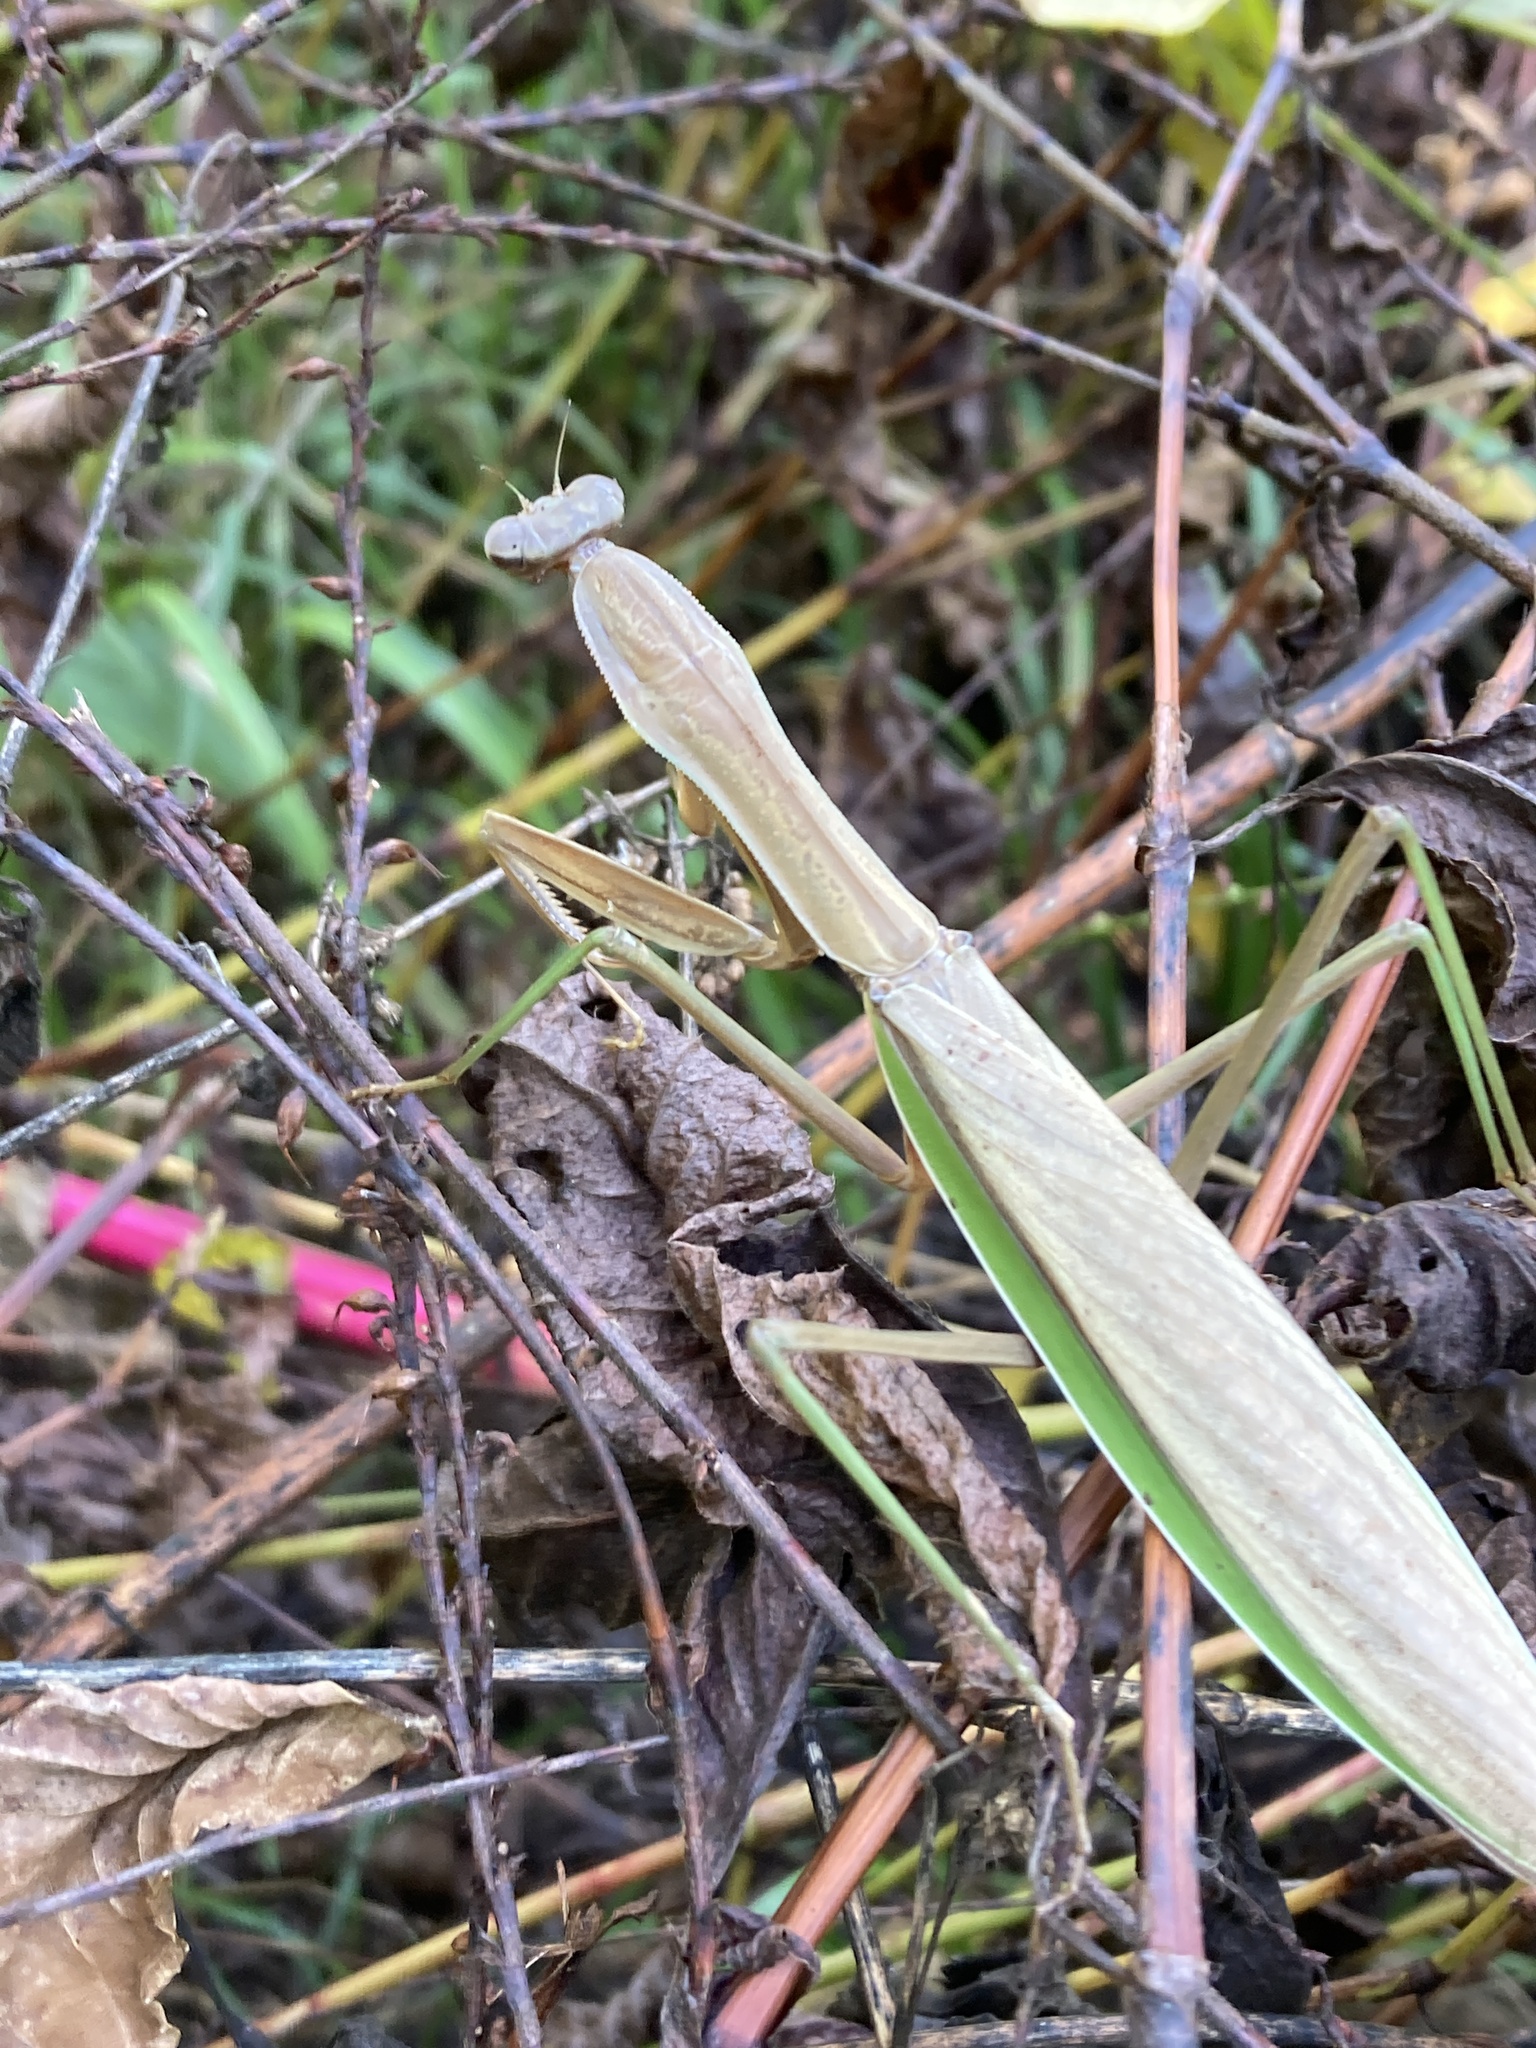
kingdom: Animalia
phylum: Arthropoda
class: Insecta
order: Mantodea
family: Mantidae
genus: Tenodera
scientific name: Tenodera sinensis
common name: Chinese mantis
